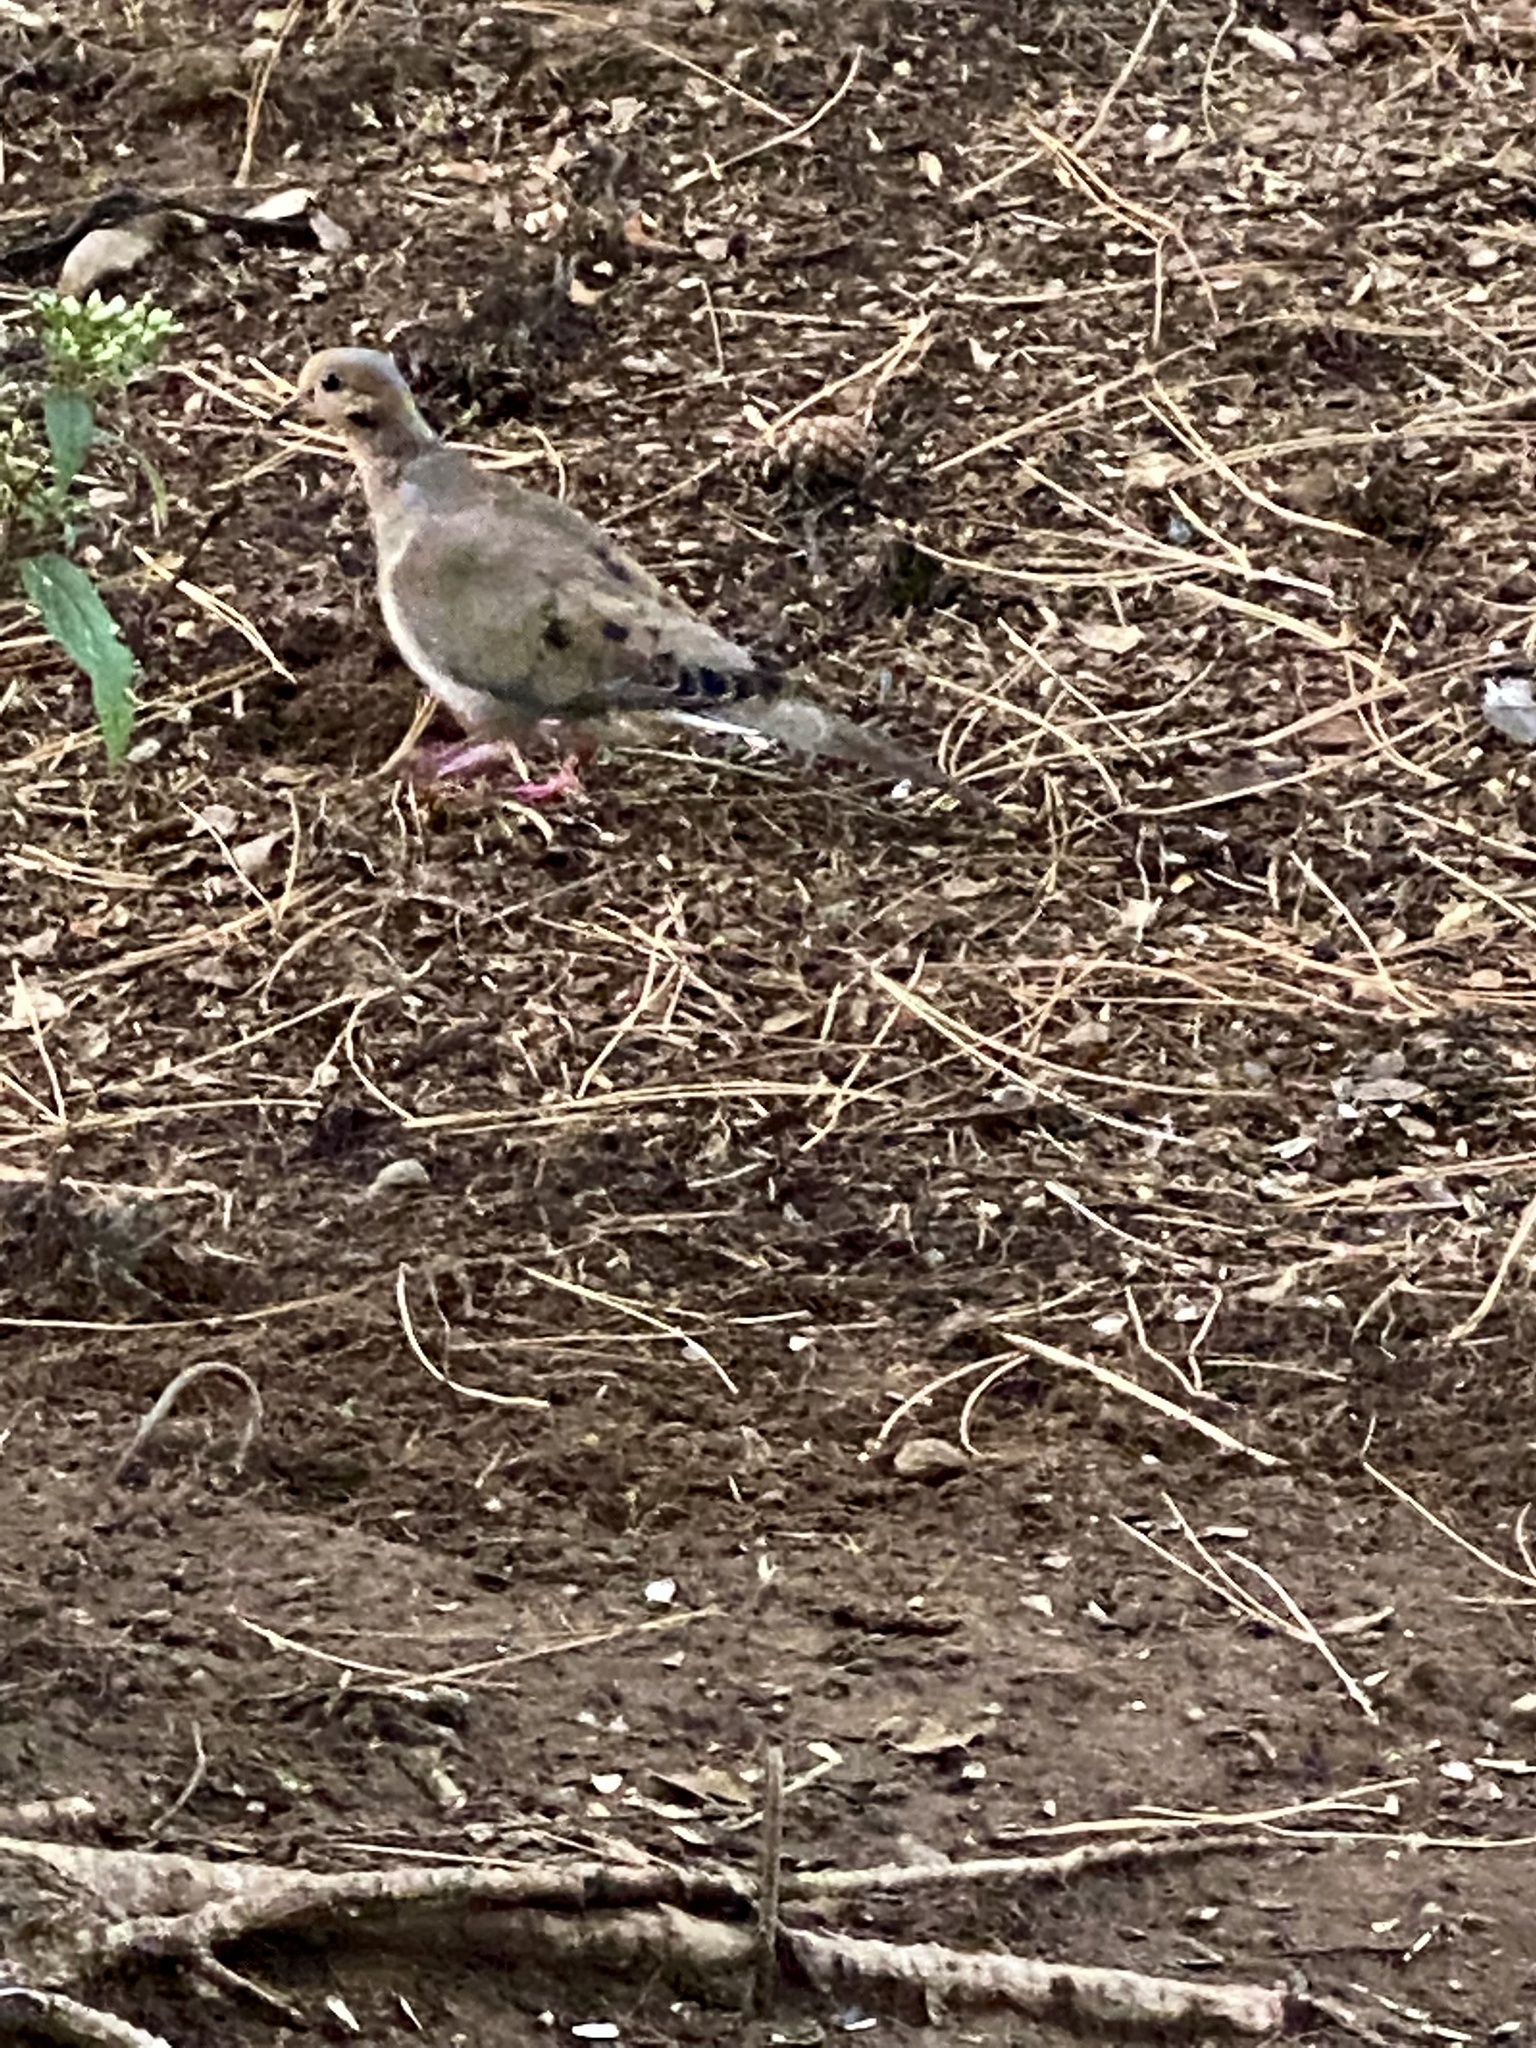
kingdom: Animalia
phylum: Chordata
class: Aves
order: Columbiformes
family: Columbidae
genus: Zenaida
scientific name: Zenaida macroura
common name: Mourning dove
